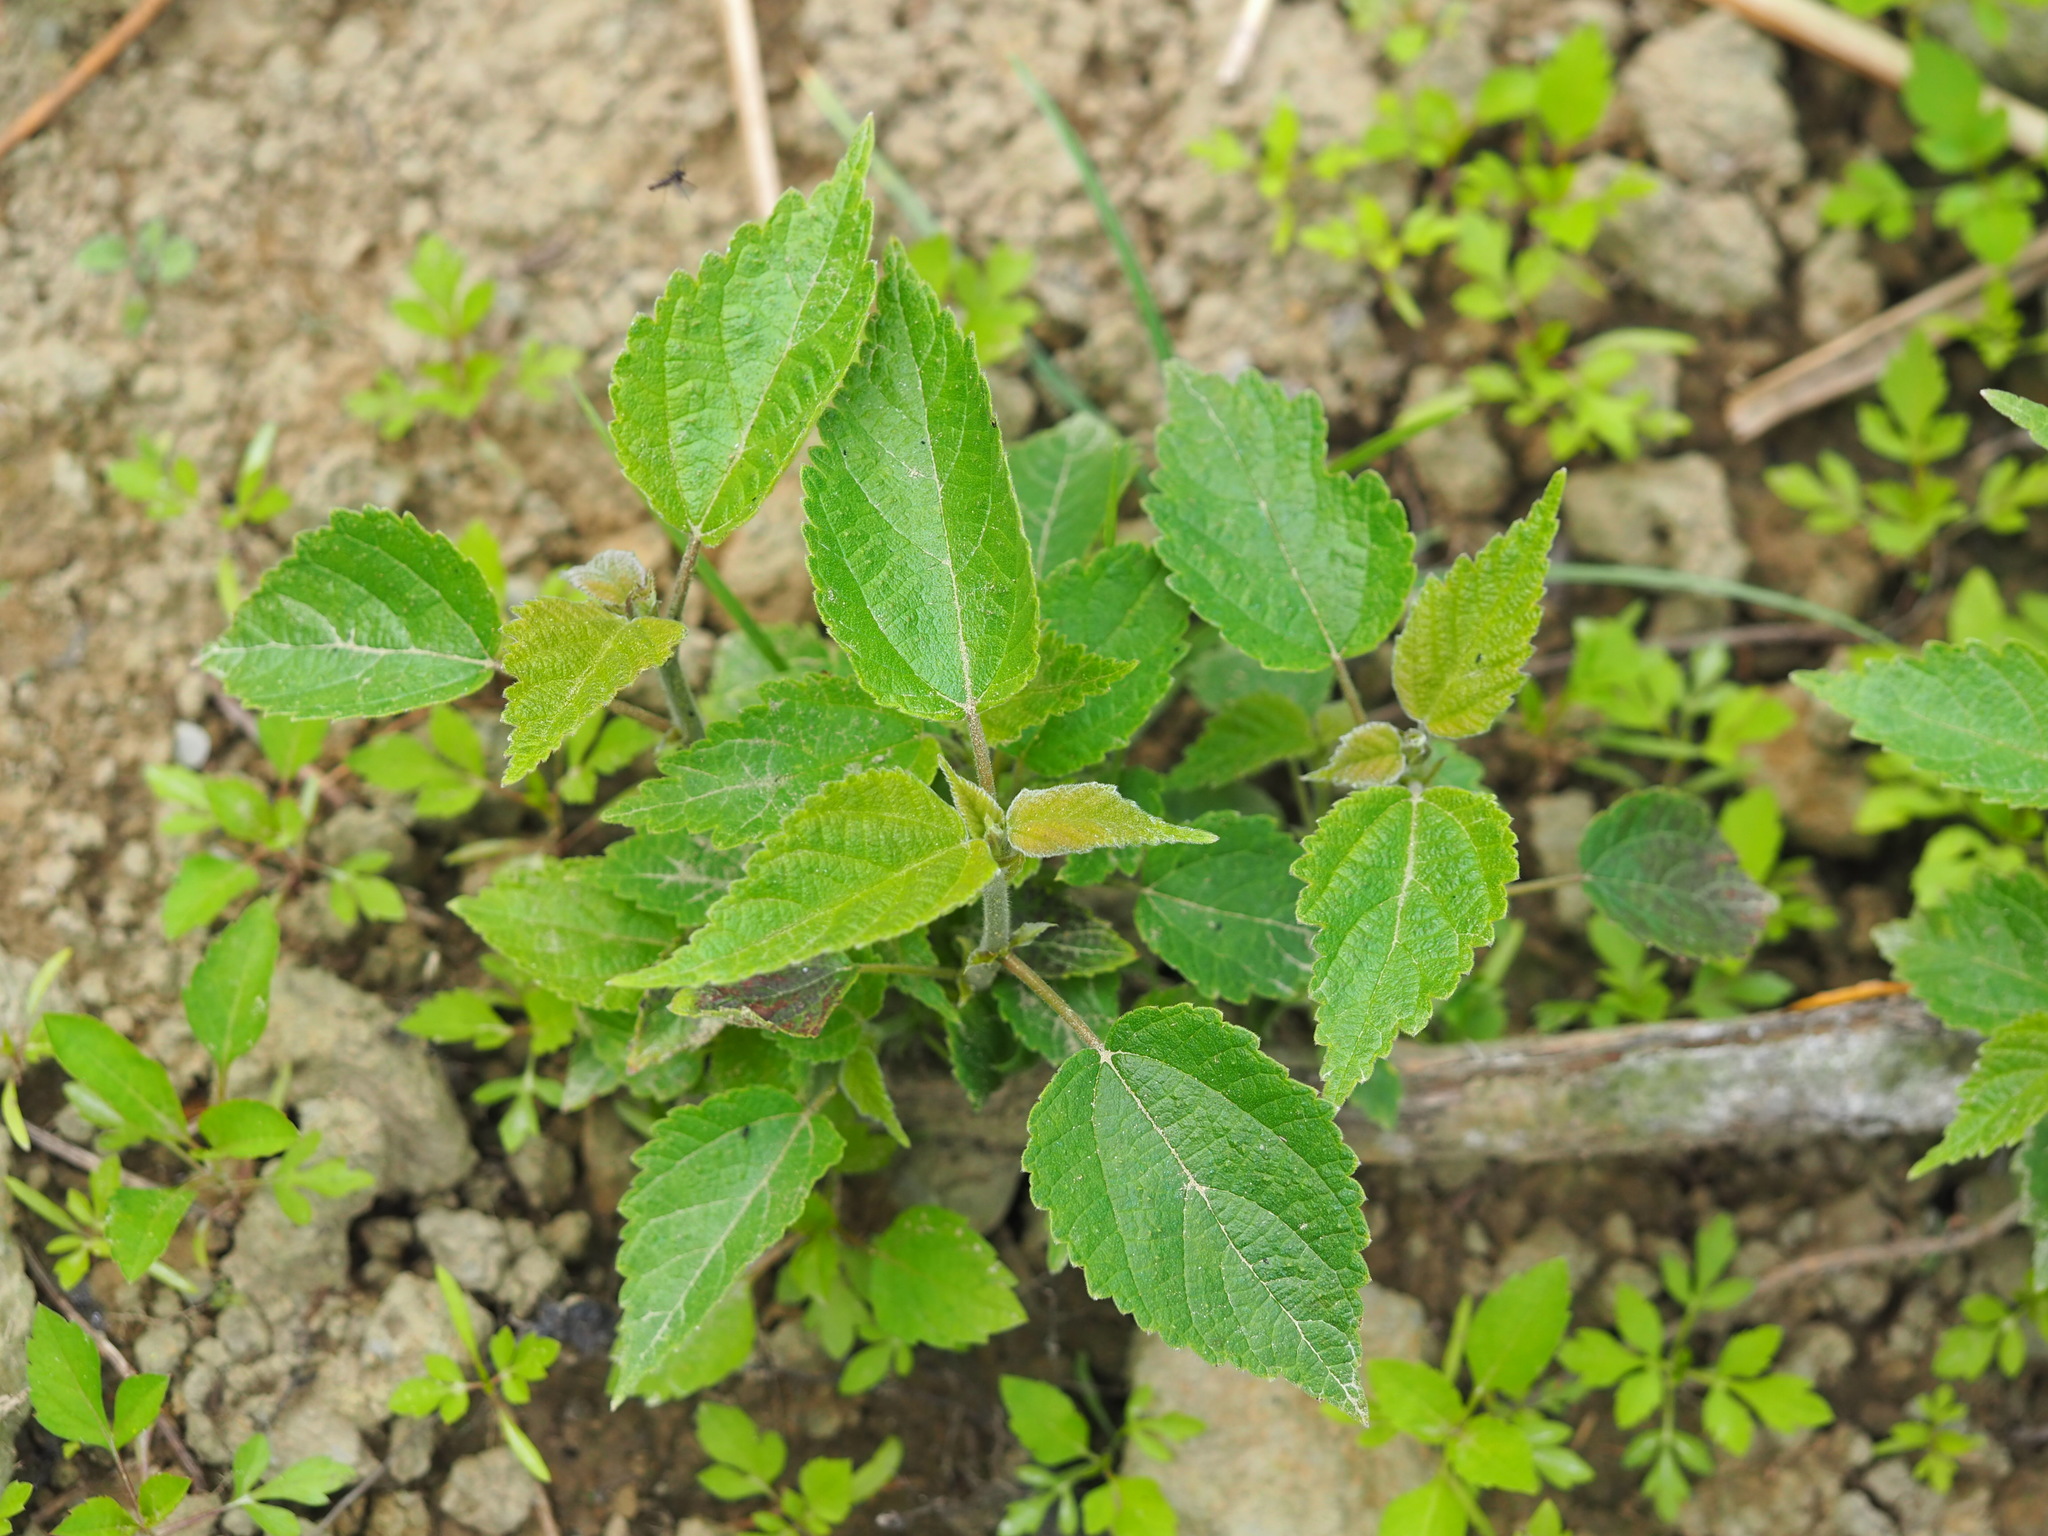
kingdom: Plantae
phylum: Tracheophyta
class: Magnoliopsida
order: Rosales
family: Moraceae
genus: Broussonetia
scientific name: Broussonetia papyrifera
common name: Paper mulberry
